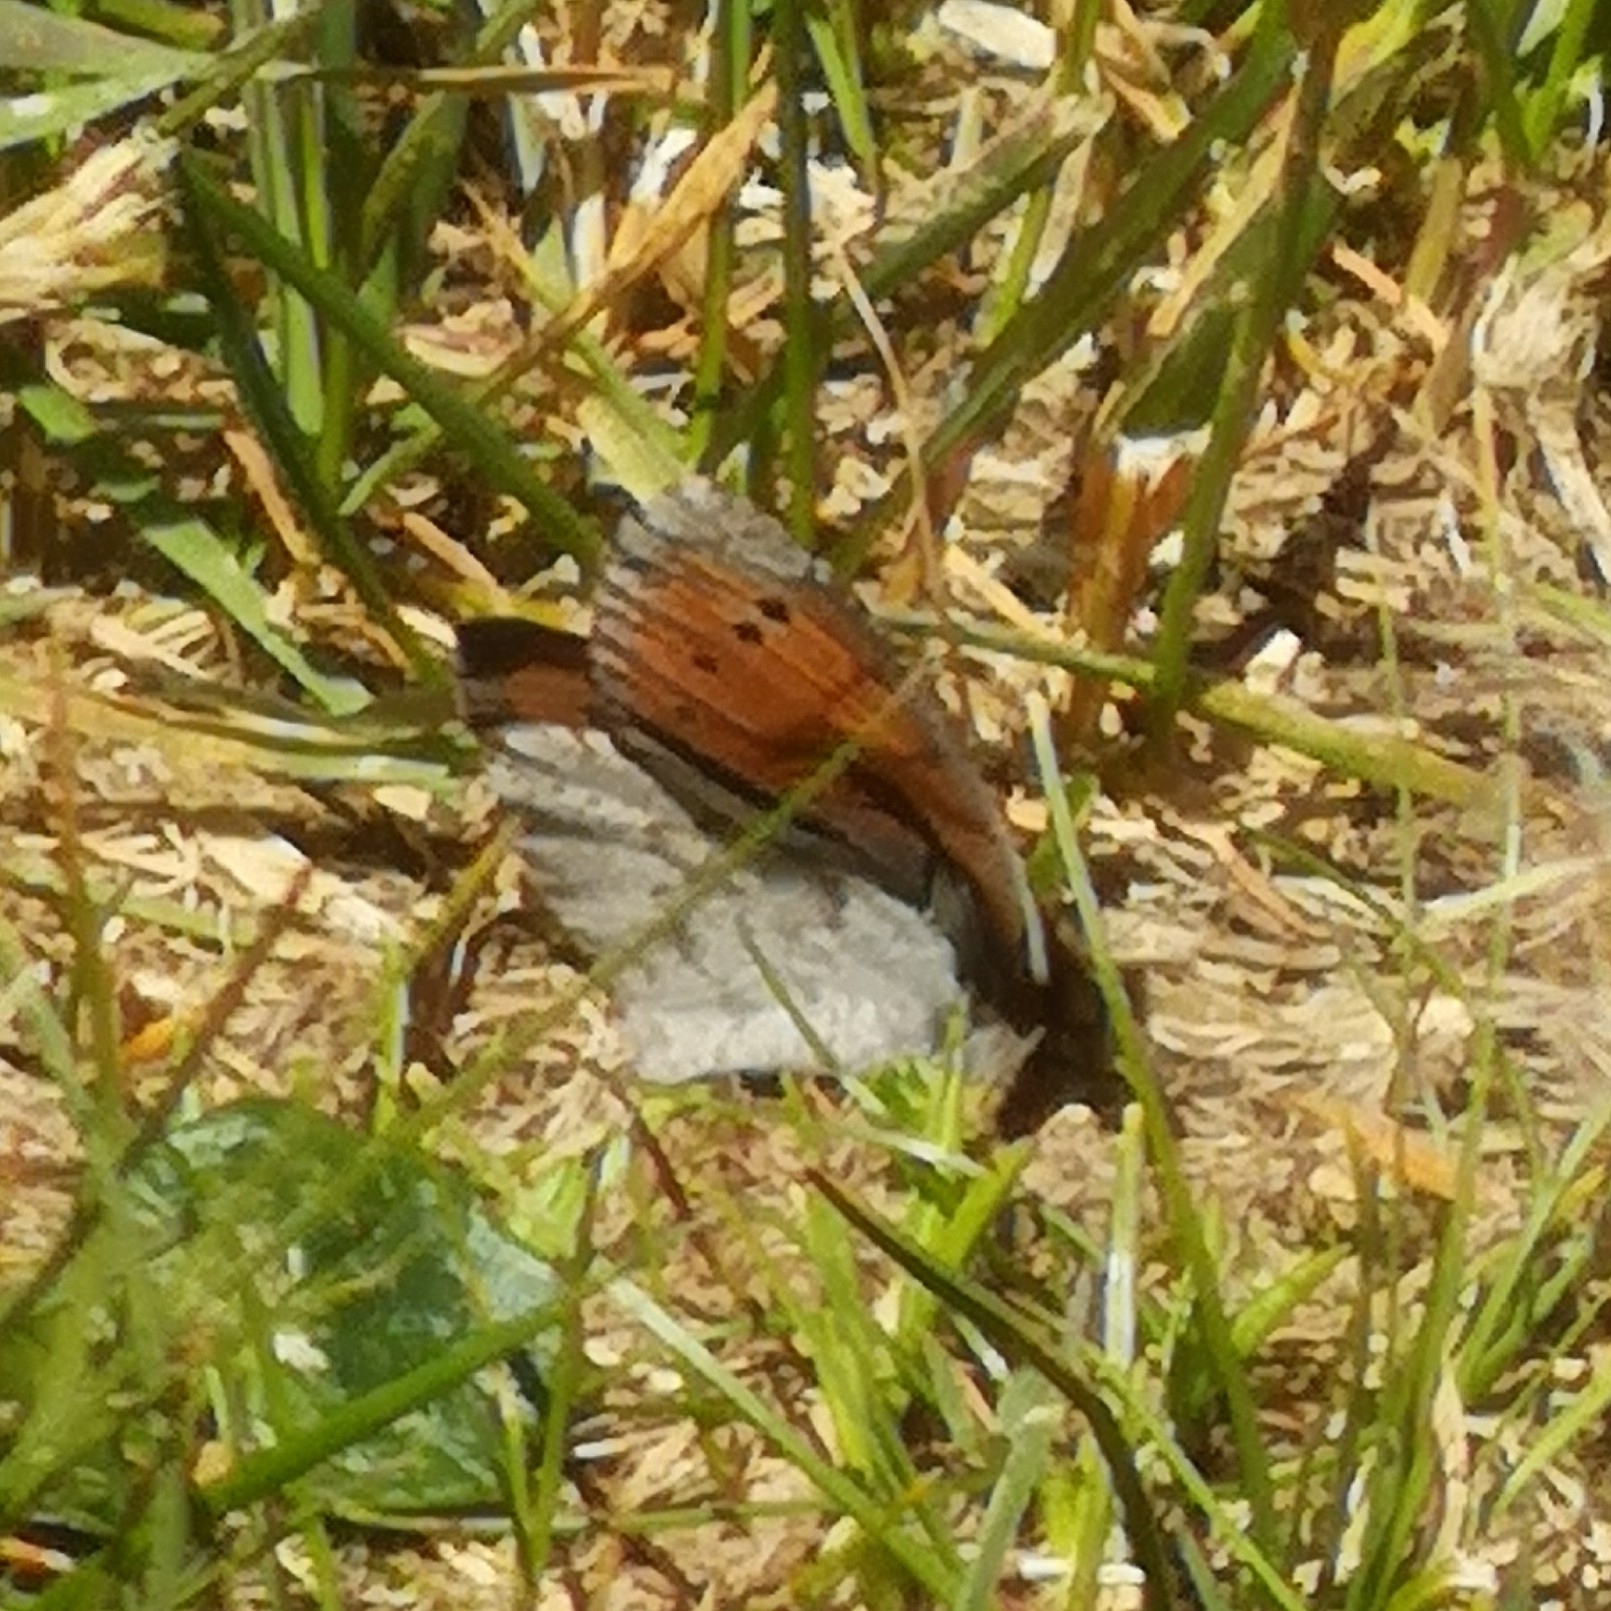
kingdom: Animalia
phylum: Arthropoda
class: Insecta
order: Lepidoptera
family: Nymphalidae
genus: Erebia
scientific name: Erebia pandrose
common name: Dewy ringlet
